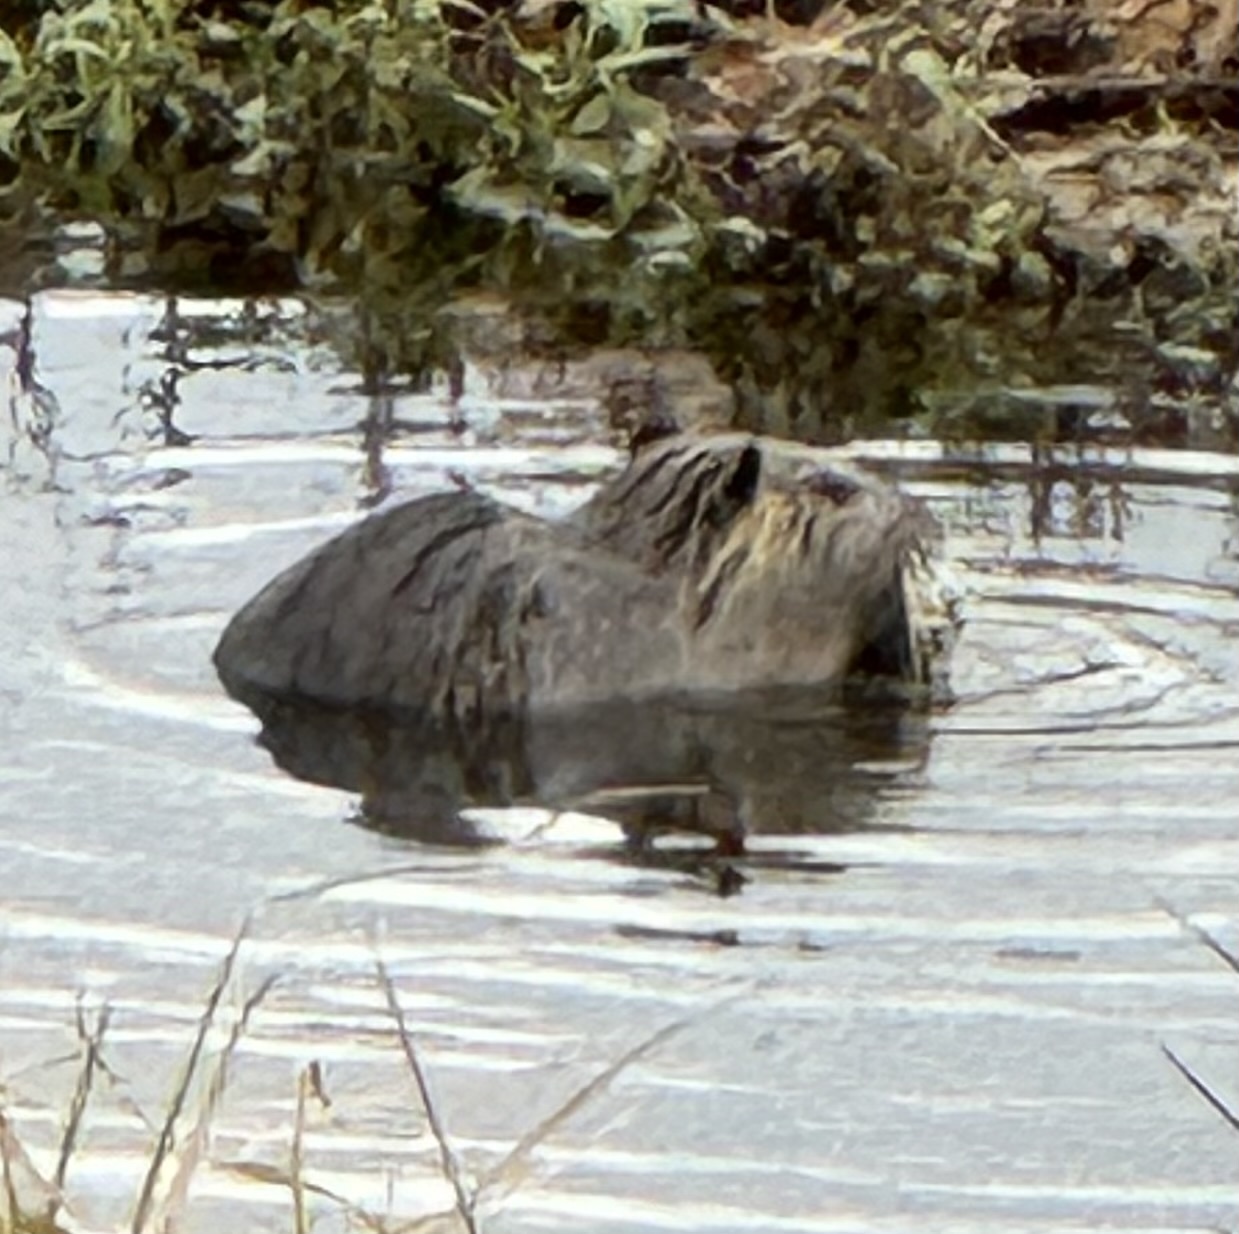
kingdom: Animalia
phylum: Chordata
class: Mammalia
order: Rodentia
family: Myocastoridae
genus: Myocastor
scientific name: Myocastor coypus
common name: Coypu
